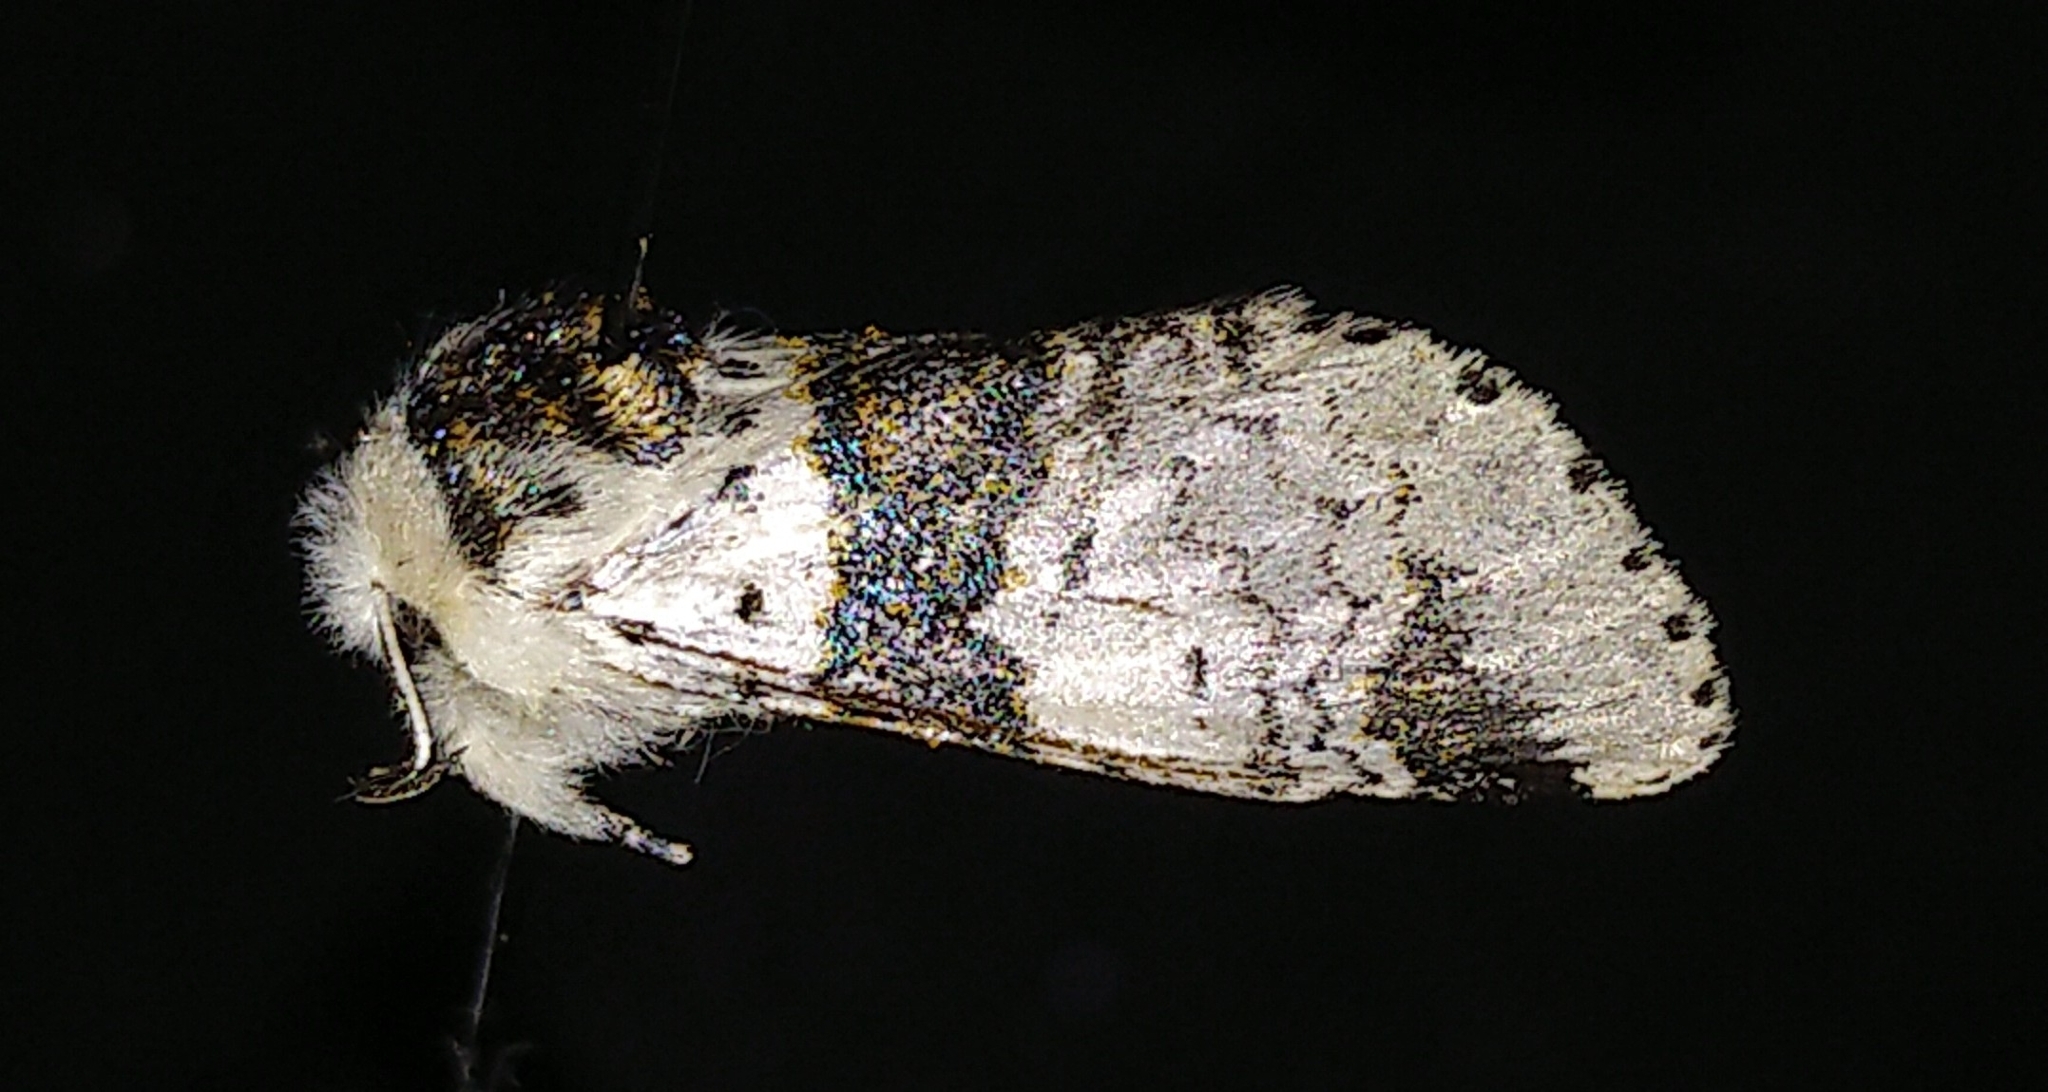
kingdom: Animalia
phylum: Arthropoda
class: Insecta
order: Lepidoptera
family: Notodontidae
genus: Furcula
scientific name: Furcula occidentalis
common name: Western furcula moth
